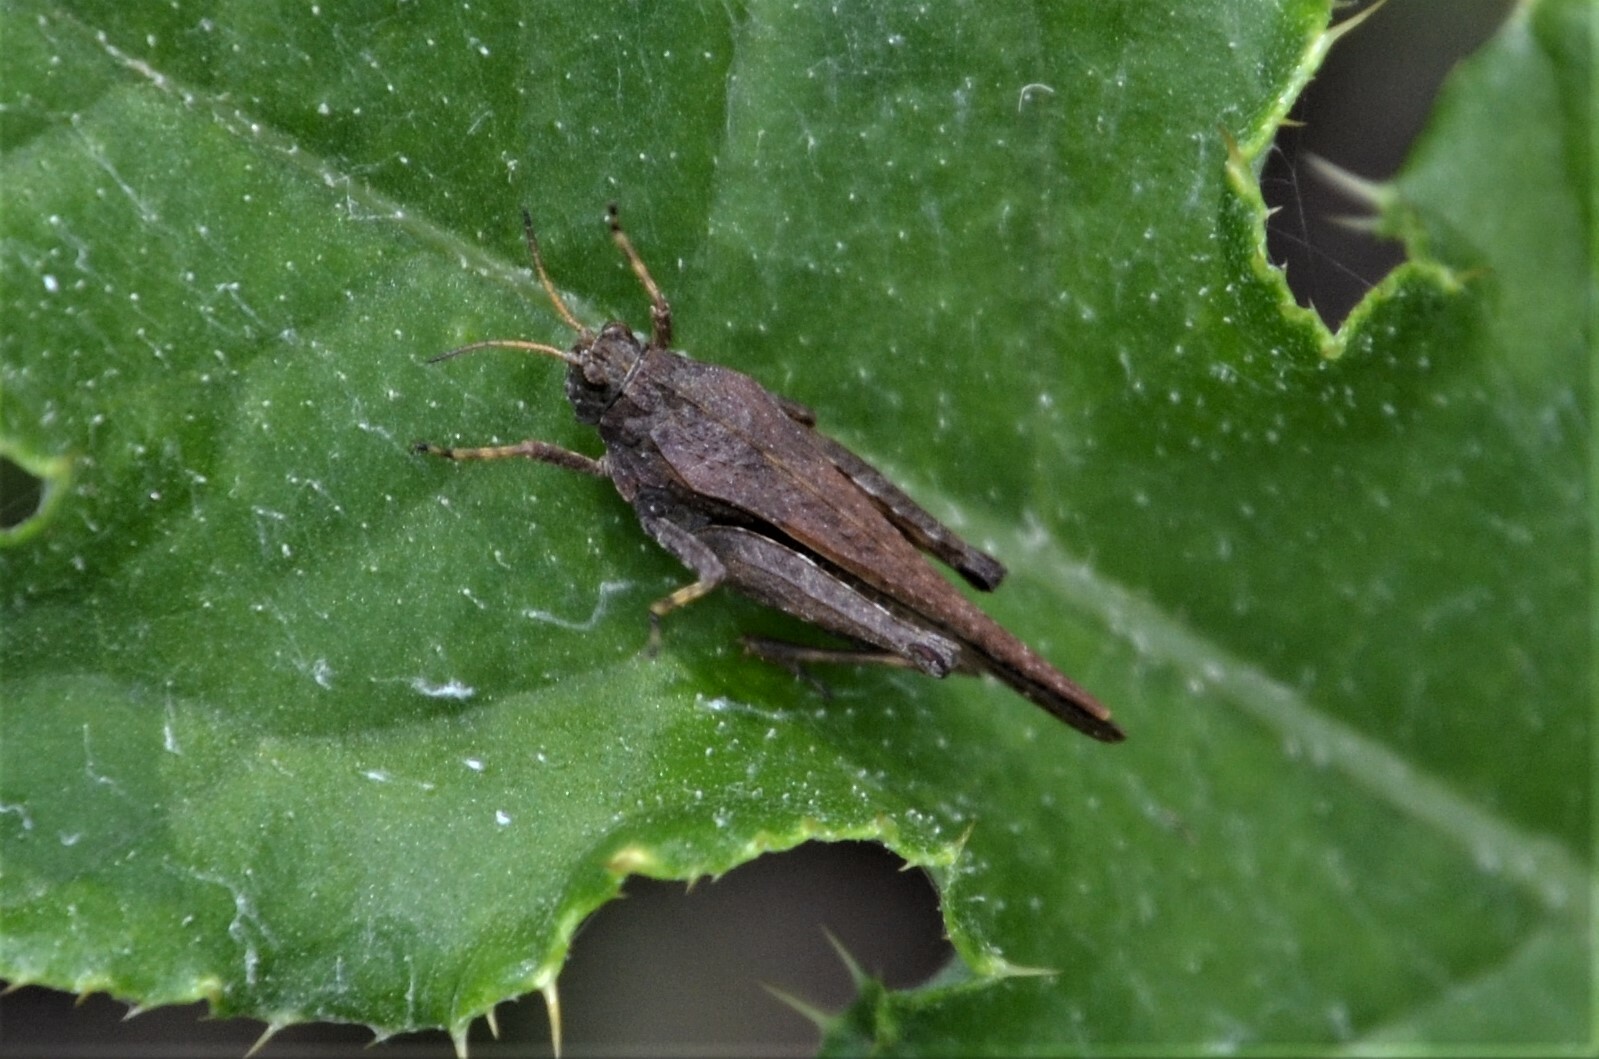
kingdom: Animalia
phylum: Arthropoda
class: Insecta
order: Orthoptera
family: Tetrigidae
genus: Tetrix
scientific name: Tetrix subulata
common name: Slender ground-hopper
